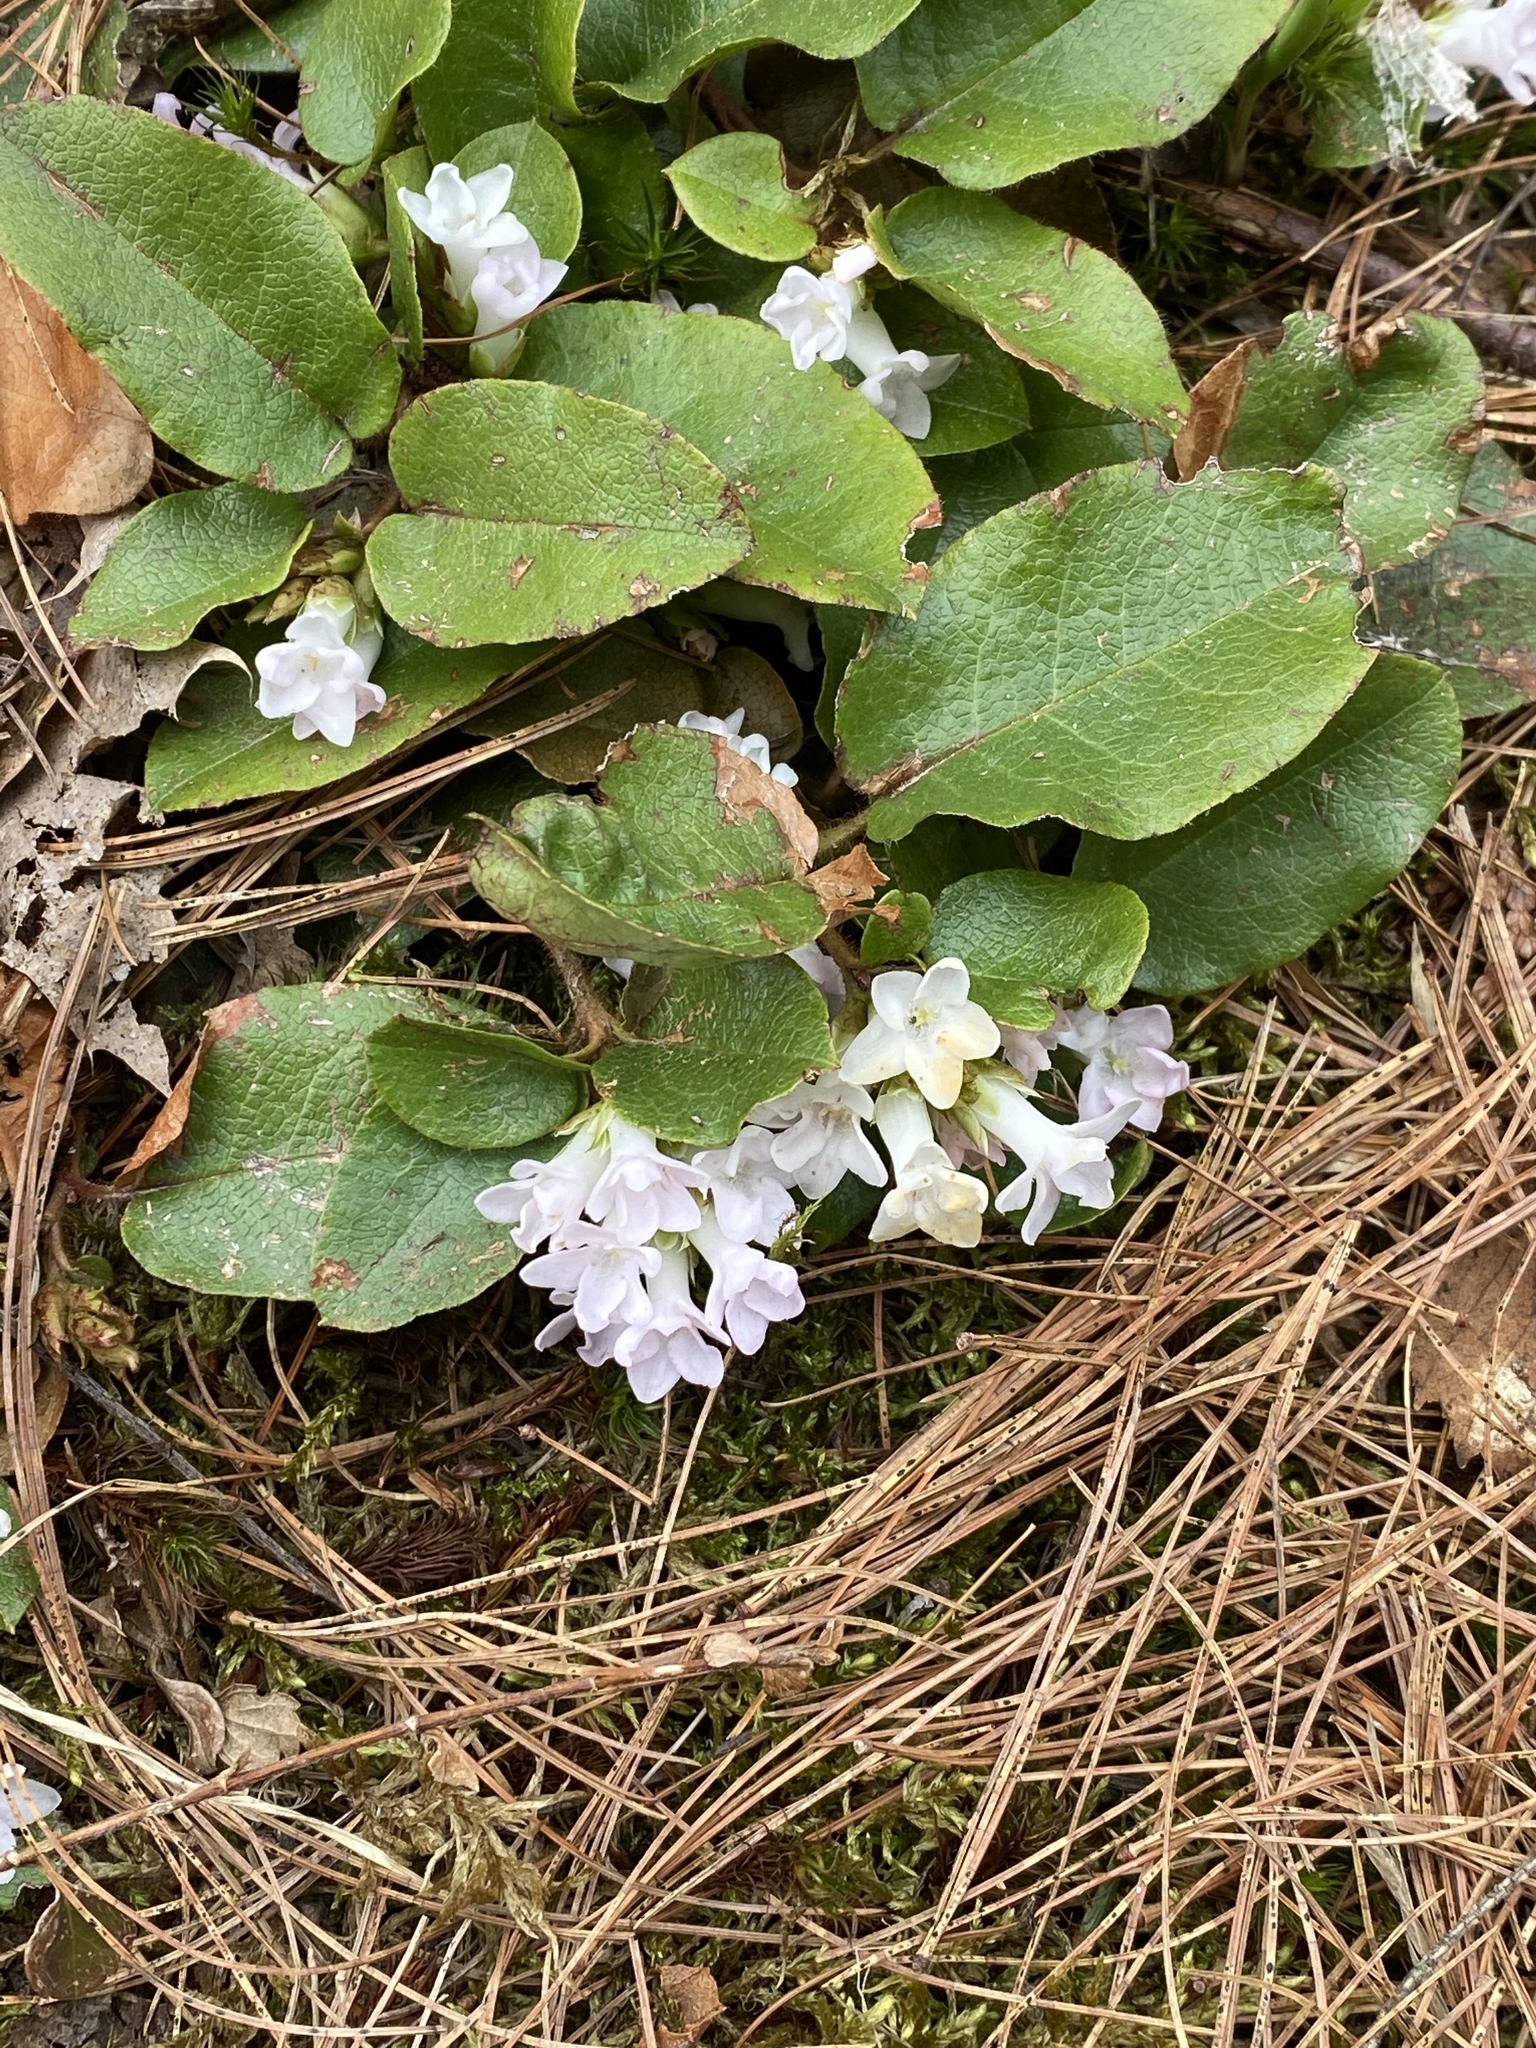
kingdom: Plantae
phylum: Tracheophyta
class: Magnoliopsida
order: Ericales
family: Ericaceae
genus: Epigaea
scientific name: Epigaea repens
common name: Gravelroot
